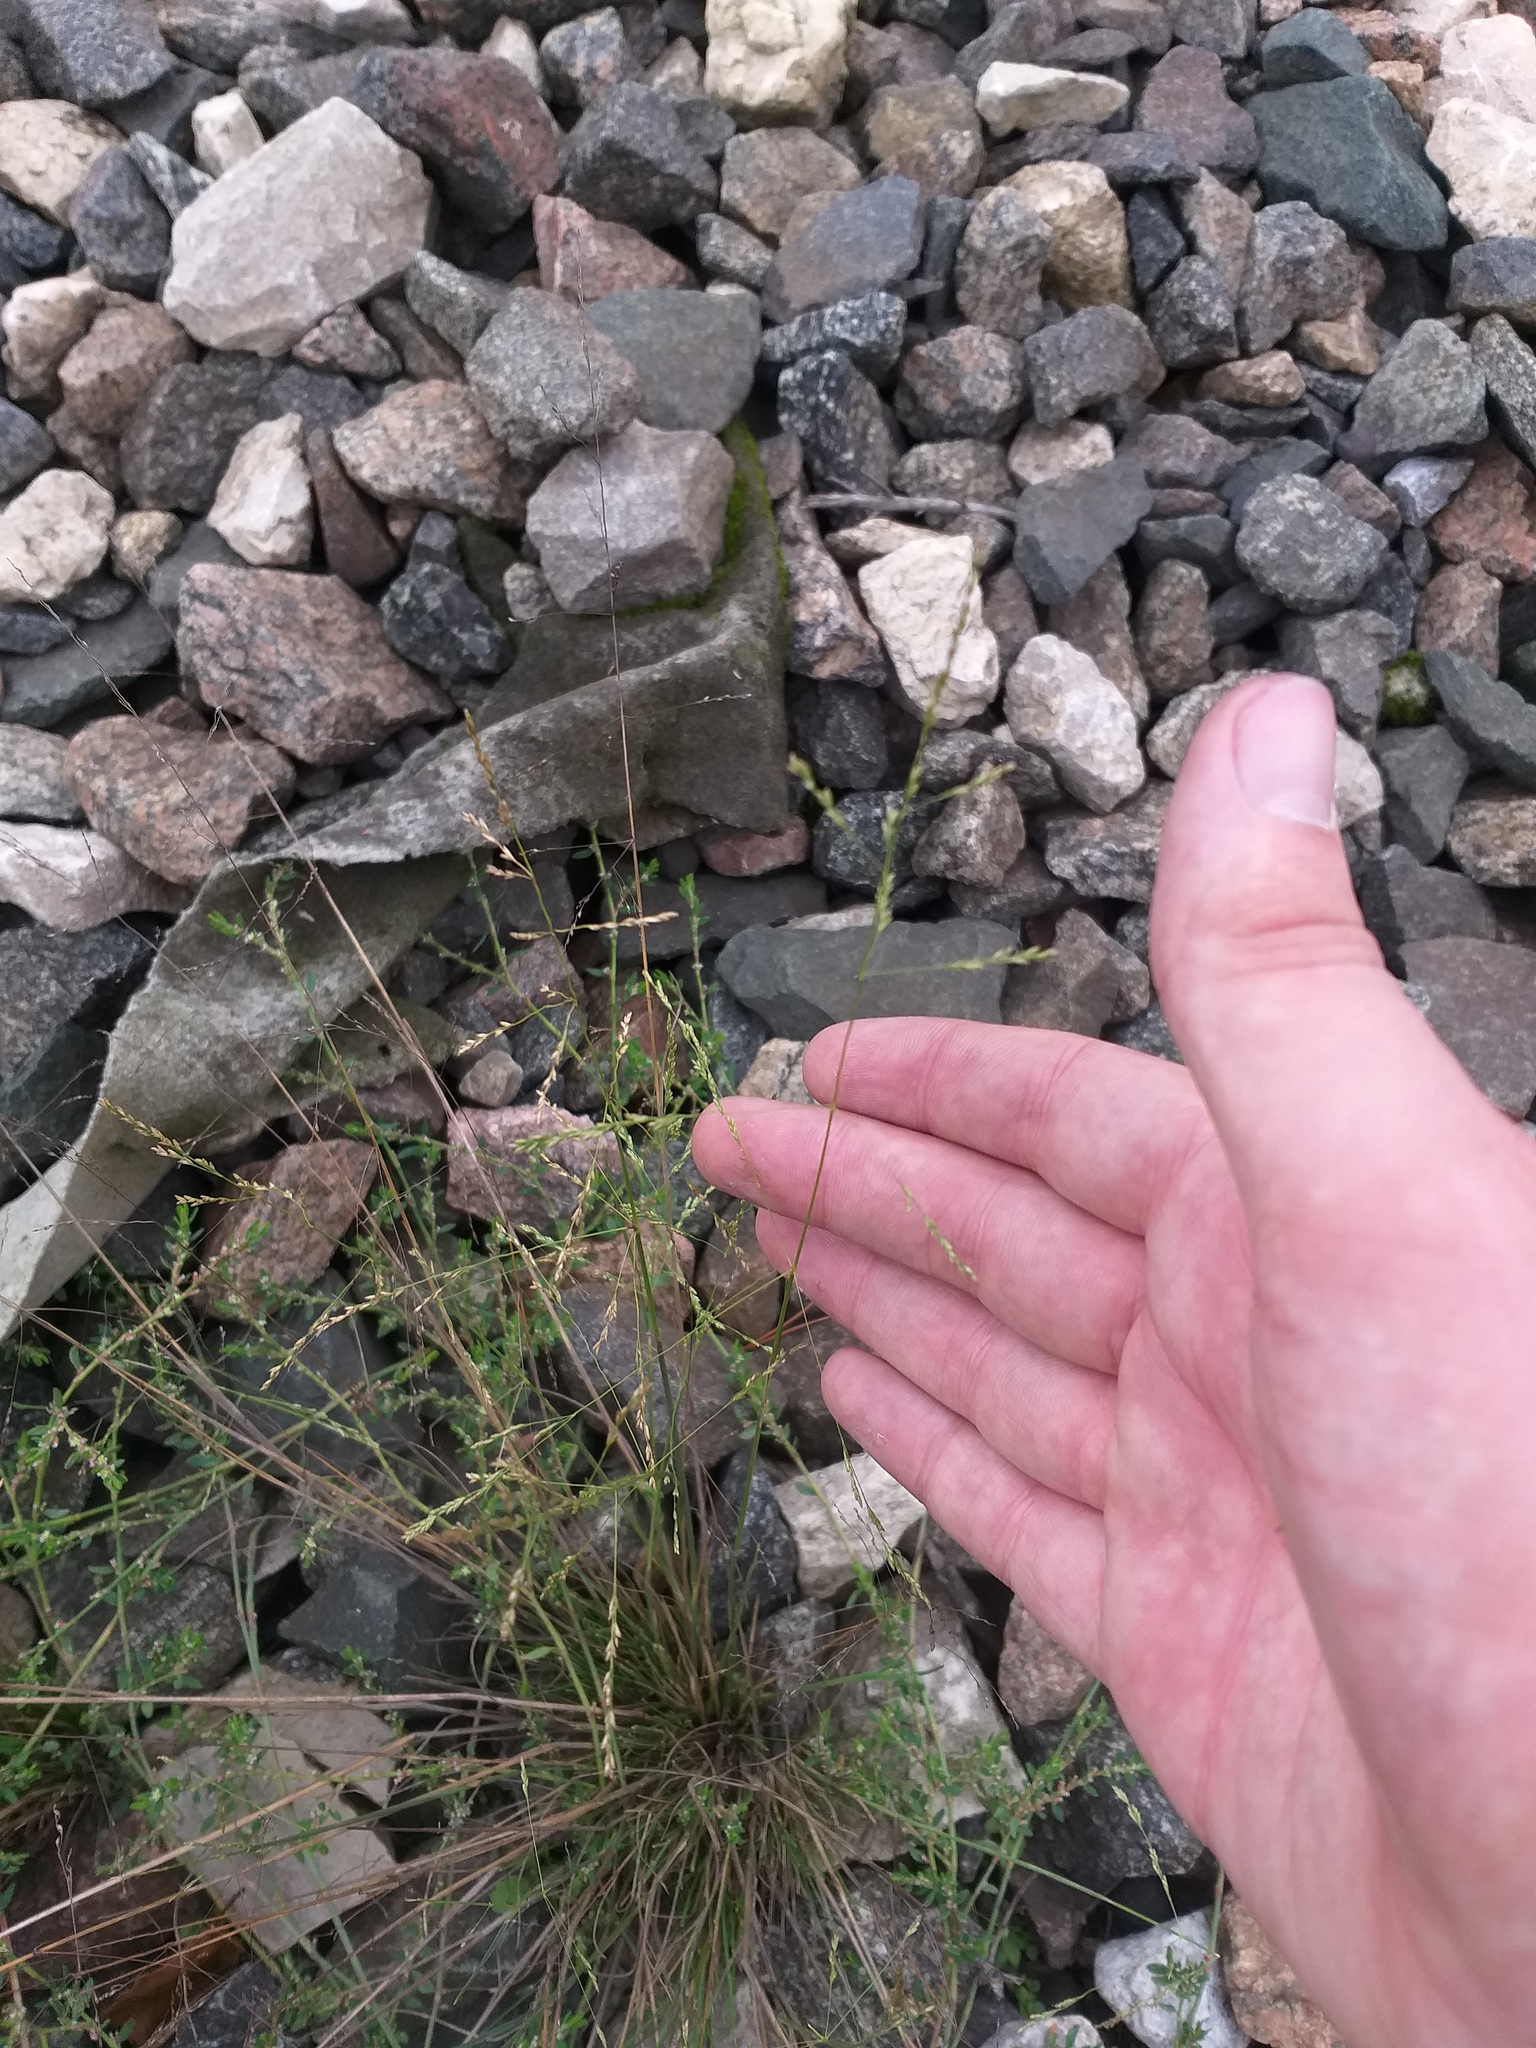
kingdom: Plantae
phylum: Tracheophyta
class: Liliopsida
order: Poales
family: Poaceae
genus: Puccinellia
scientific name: Puccinellia distans
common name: Weeping alkaligrass
